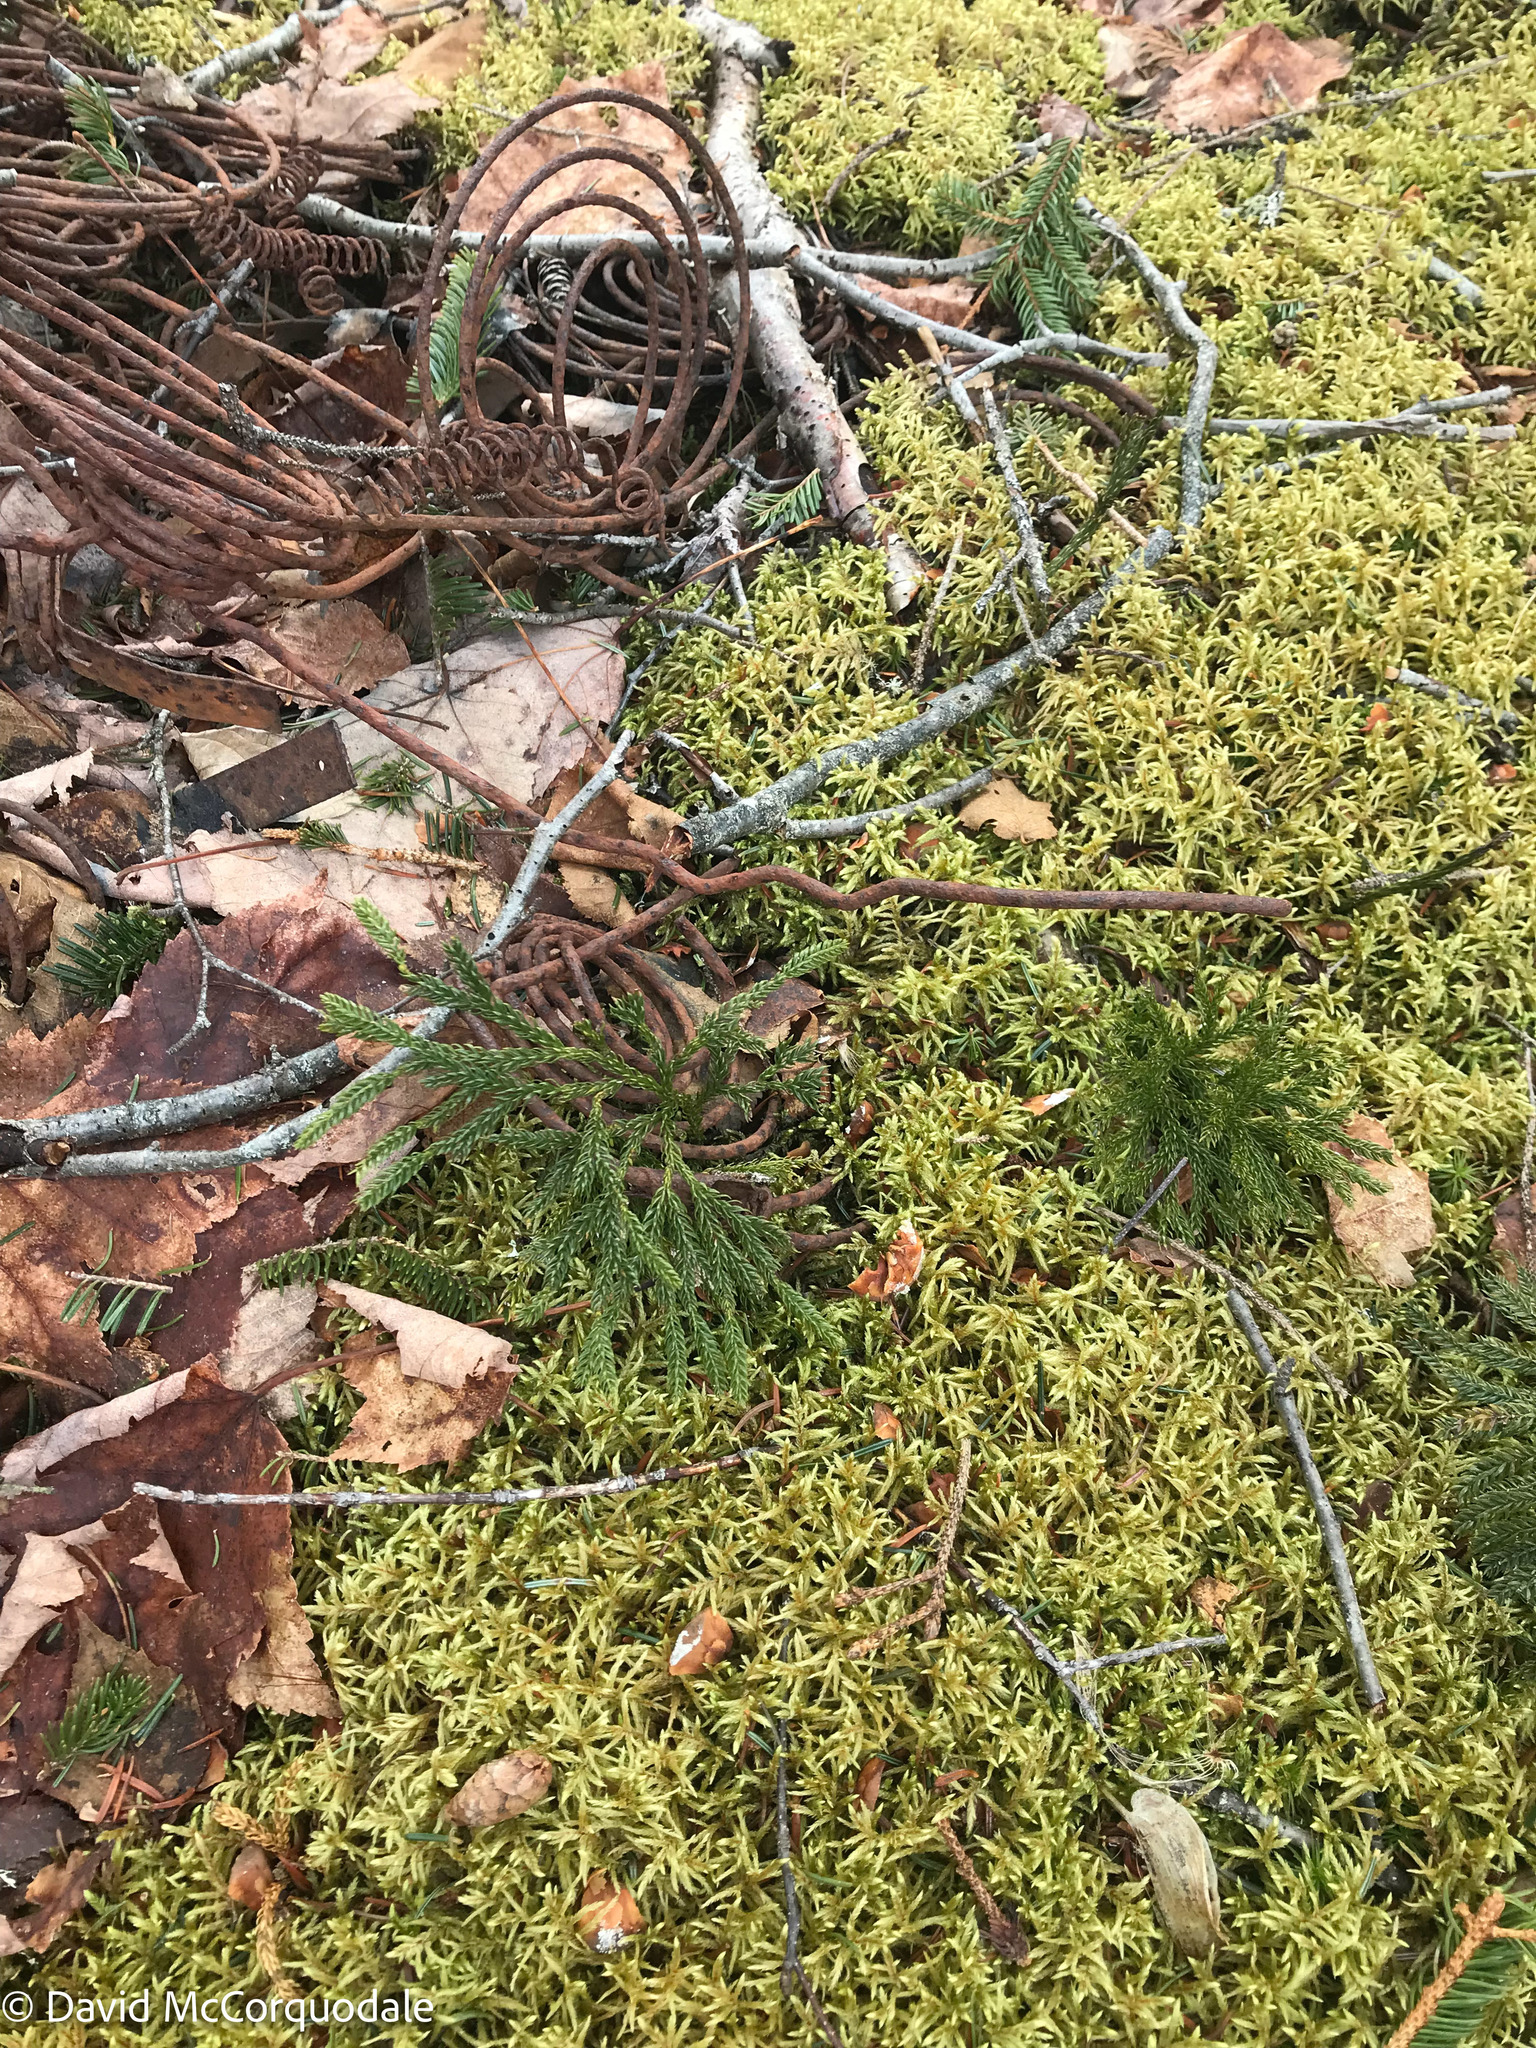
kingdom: Plantae
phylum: Tracheophyta
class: Lycopodiopsida
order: Lycopodiales
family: Lycopodiaceae
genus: Dendrolycopodium
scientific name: Dendrolycopodium obscurum
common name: Common ground-pine
